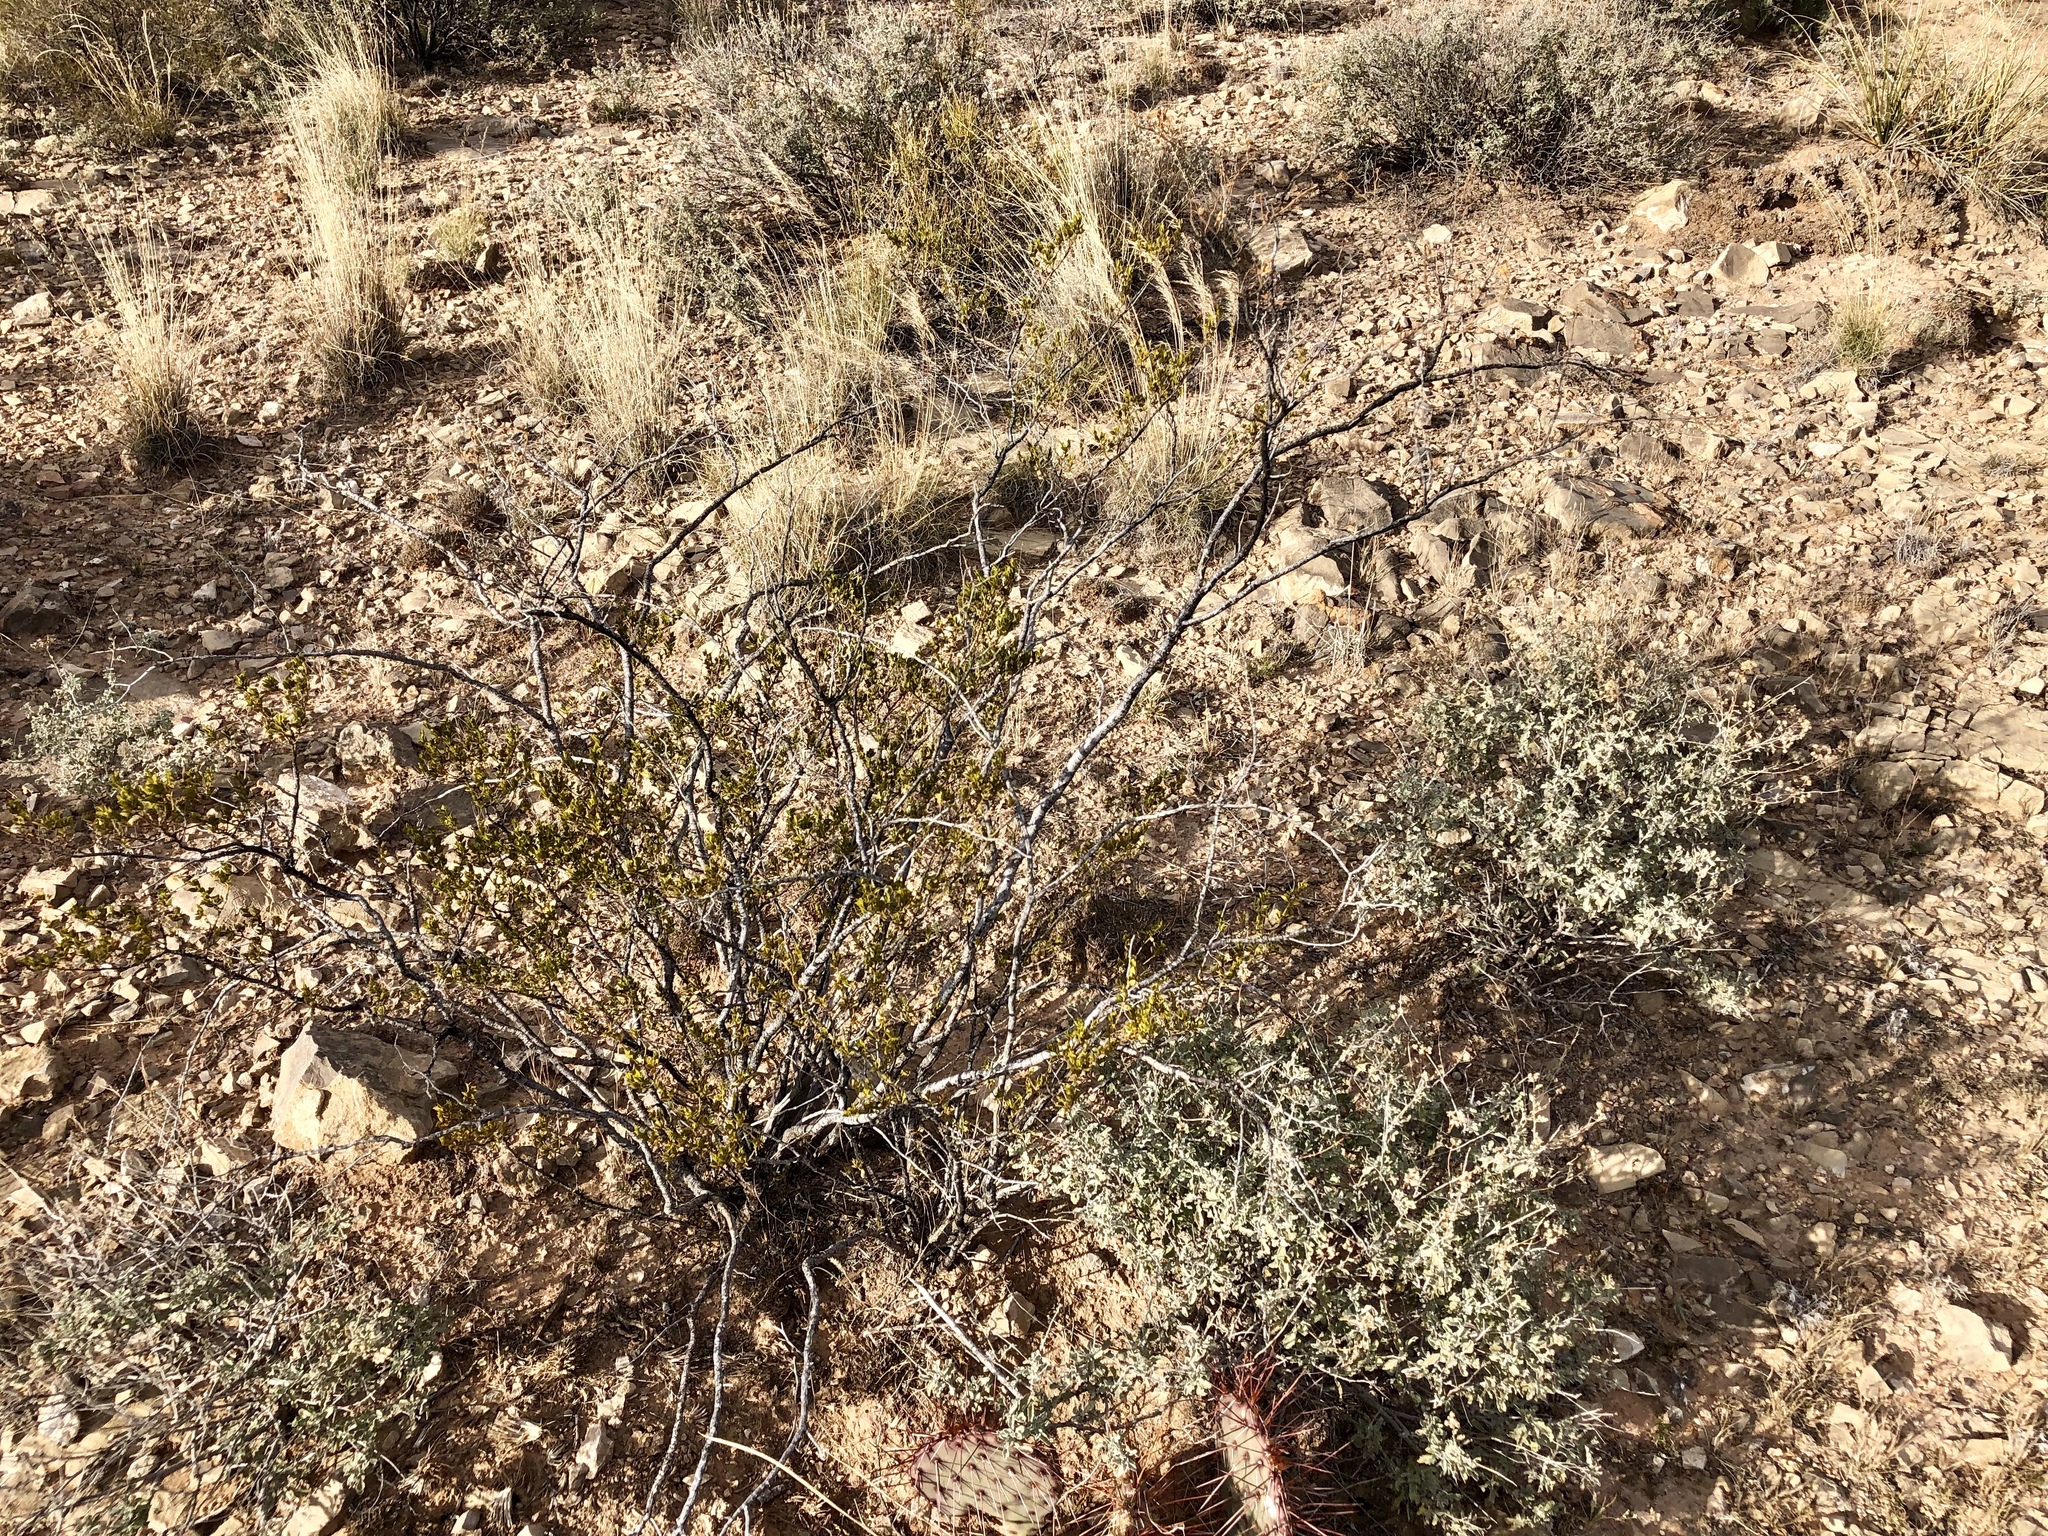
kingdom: Plantae
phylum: Tracheophyta
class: Magnoliopsida
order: Zygophyllales
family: Zygophyllaceae
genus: Larrea
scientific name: Larrea tridentata
